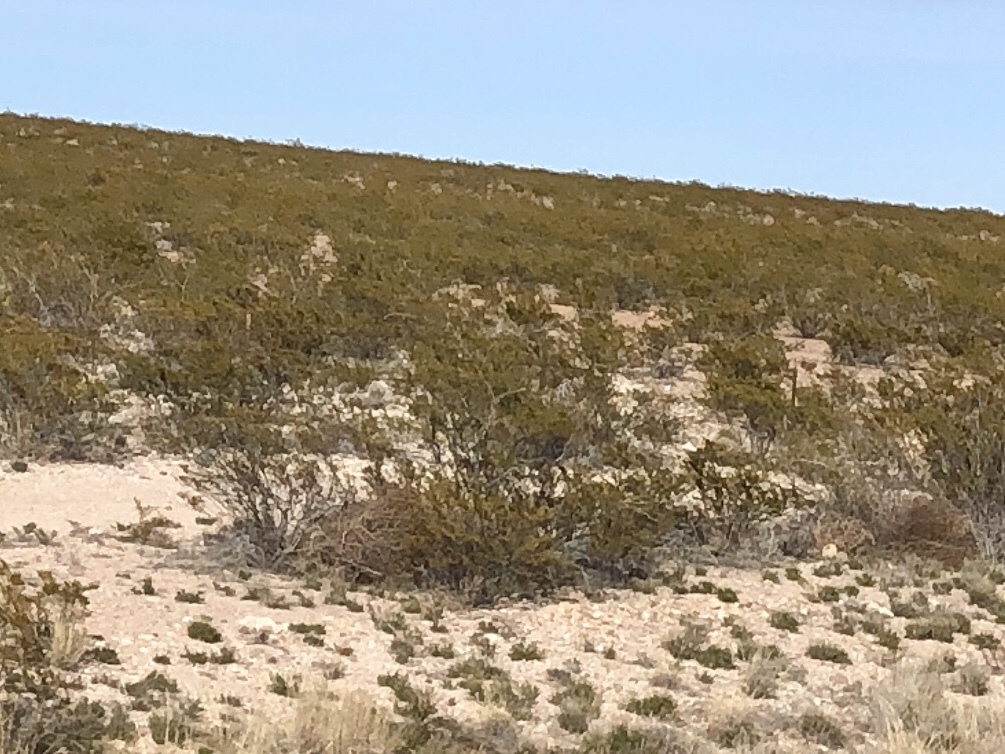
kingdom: Plantae
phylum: Tracheophyta
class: Magnoliopsida
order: Zygophyllales
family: Zygophyllaceae
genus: Larrea
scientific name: Larrea tridentata
